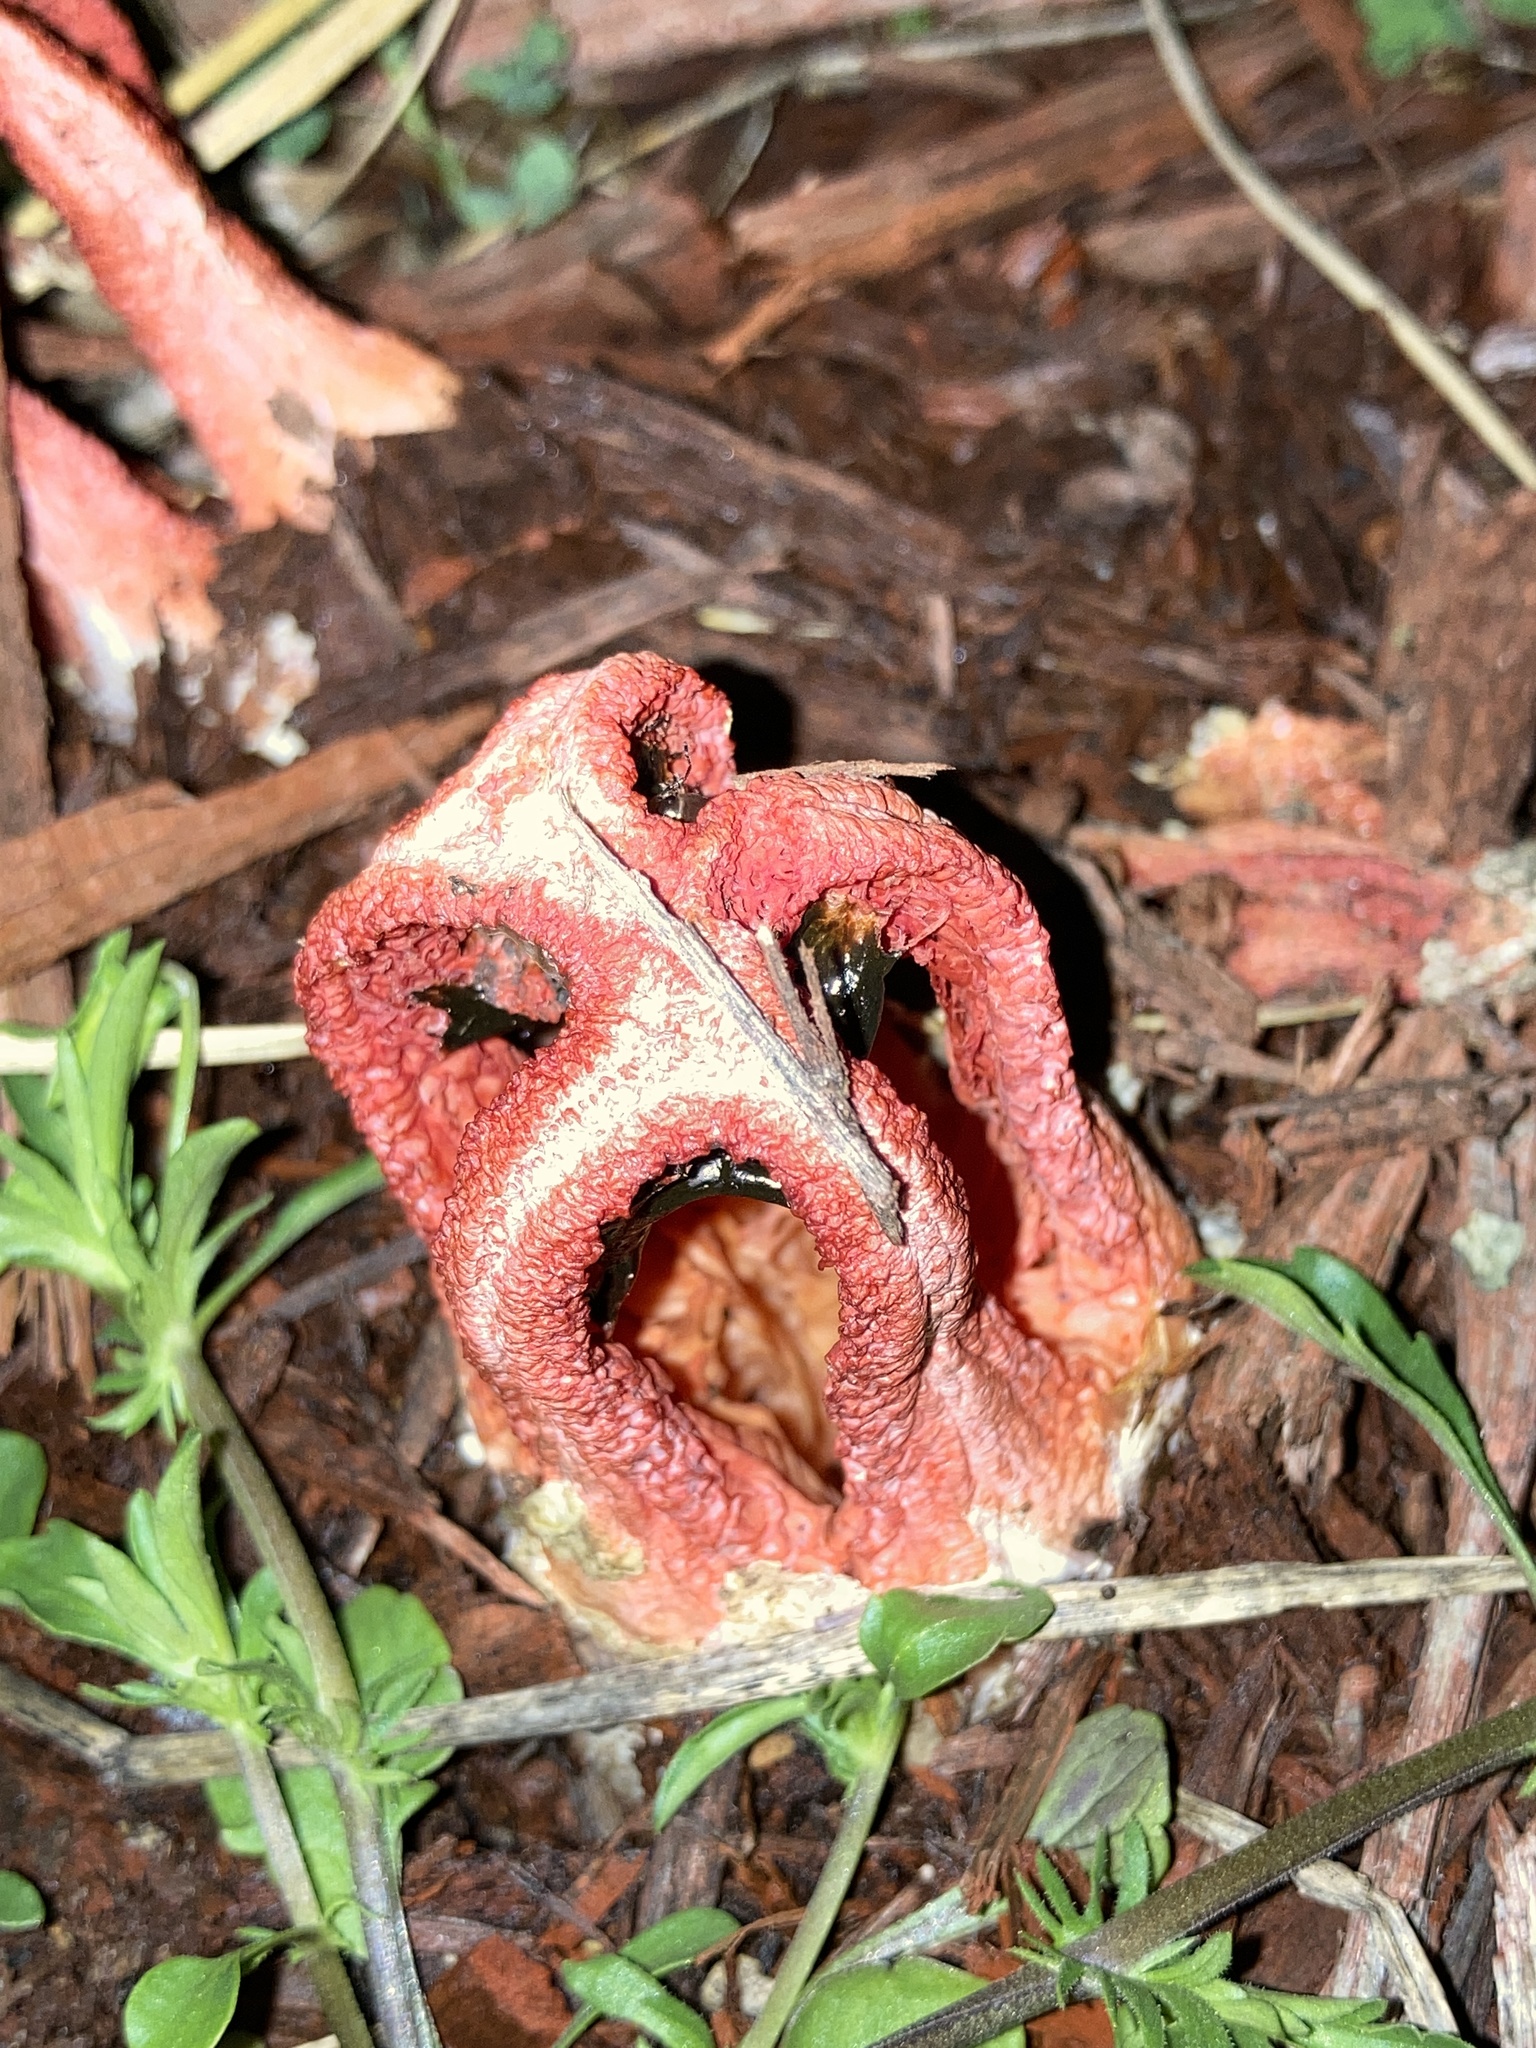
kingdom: Fungi
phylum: Basidiomycota
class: Agaricomycetes
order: Phallales
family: Phallaceae
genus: Clathrus
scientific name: Clathrus columnatus
